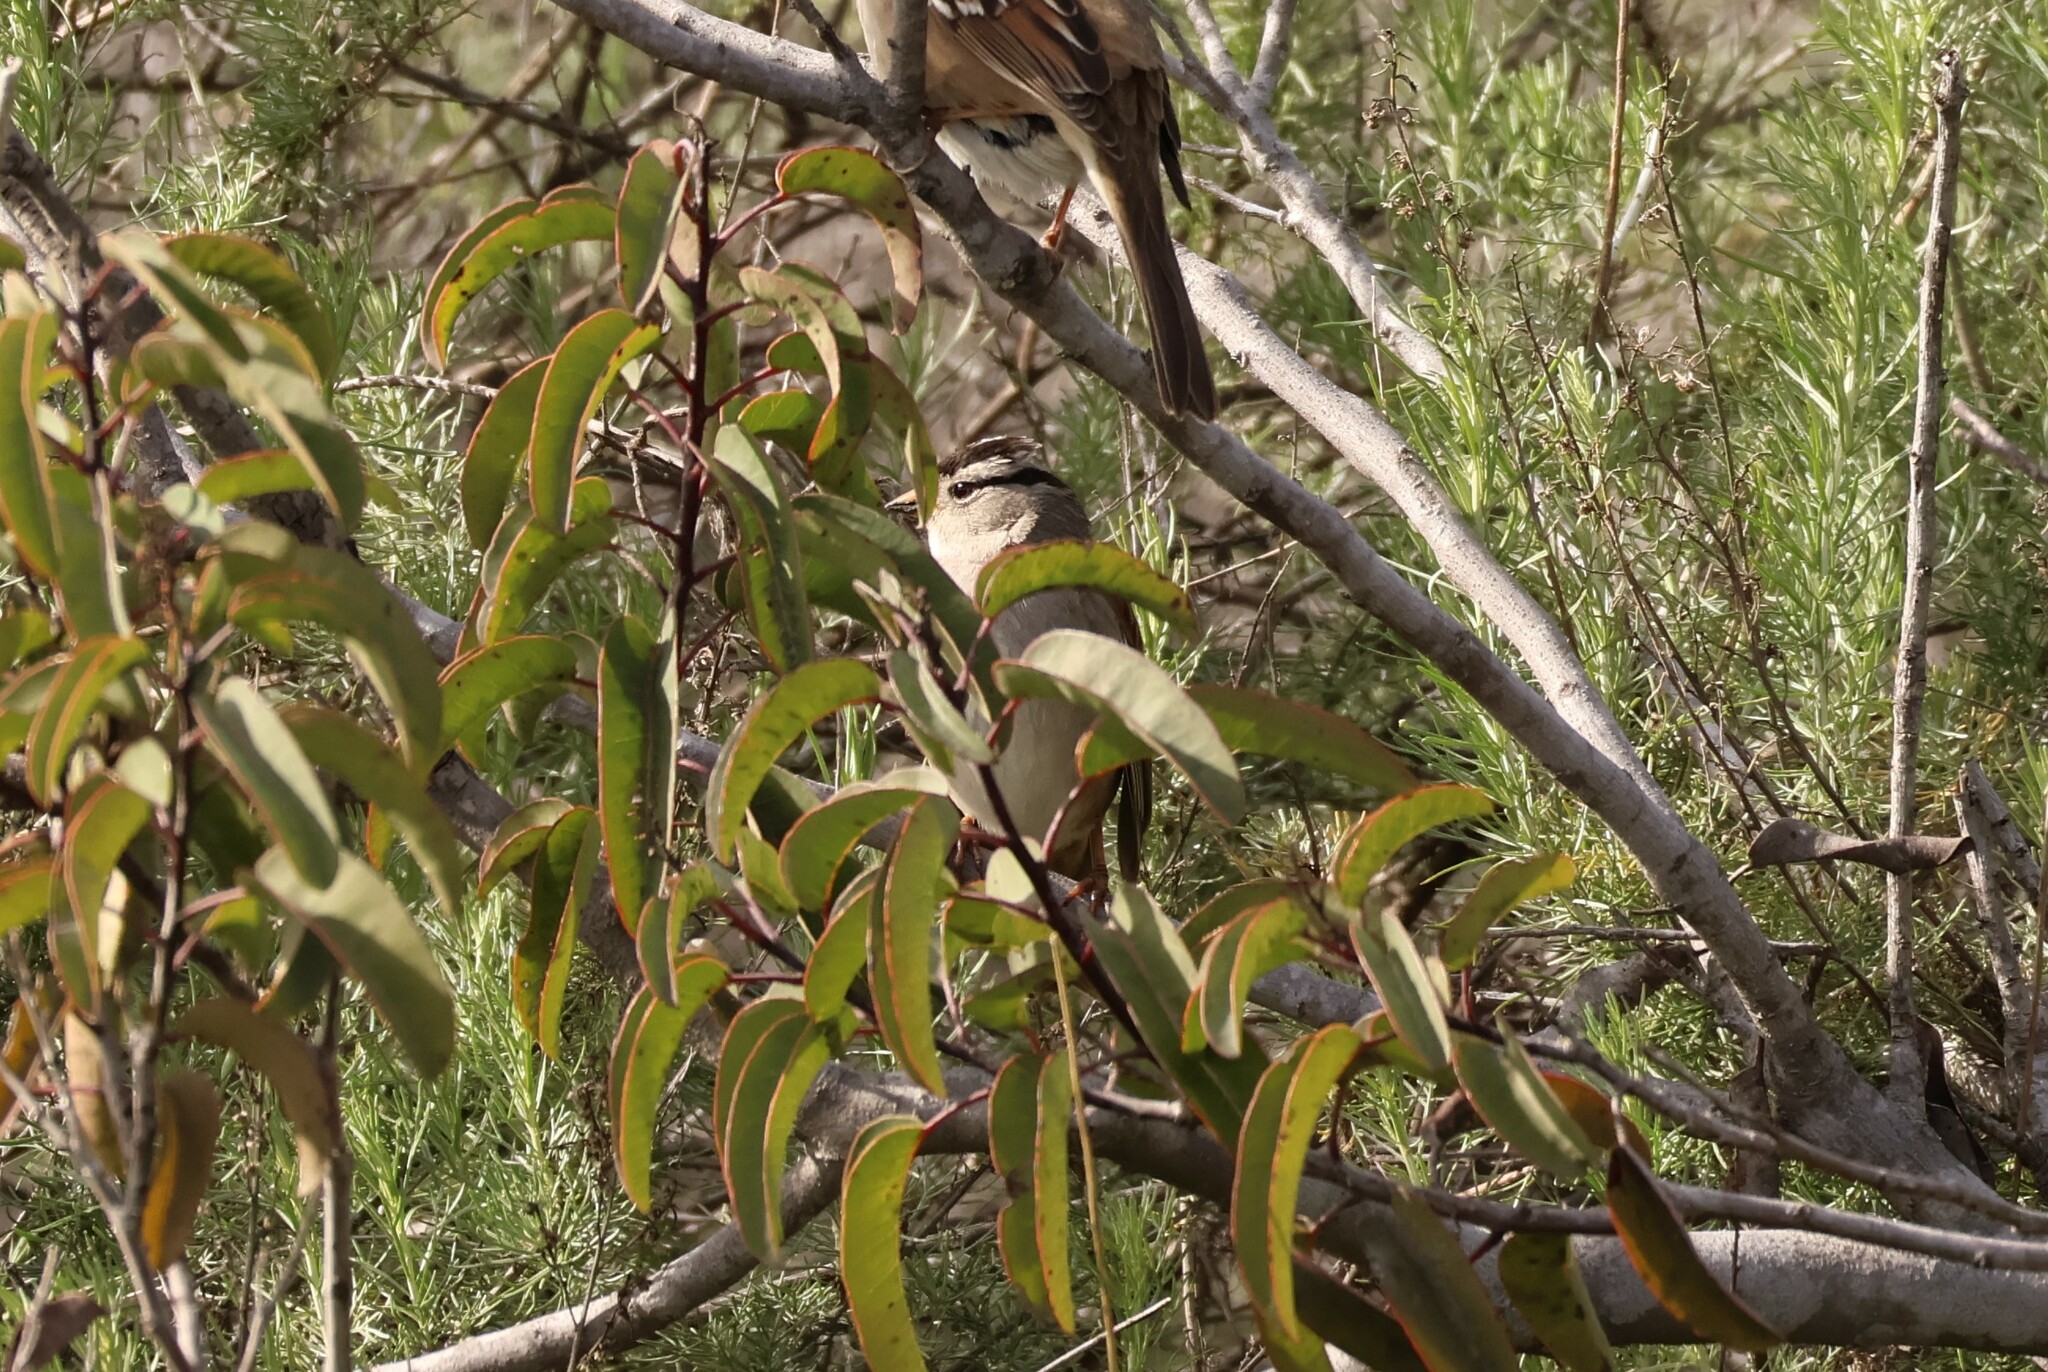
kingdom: Animalia
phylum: Chordata
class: Aves
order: Passeriformes
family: Passerellidae
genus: Zonotrichia
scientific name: Zonotrichia leucophrys
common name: White-crowned sparrow
